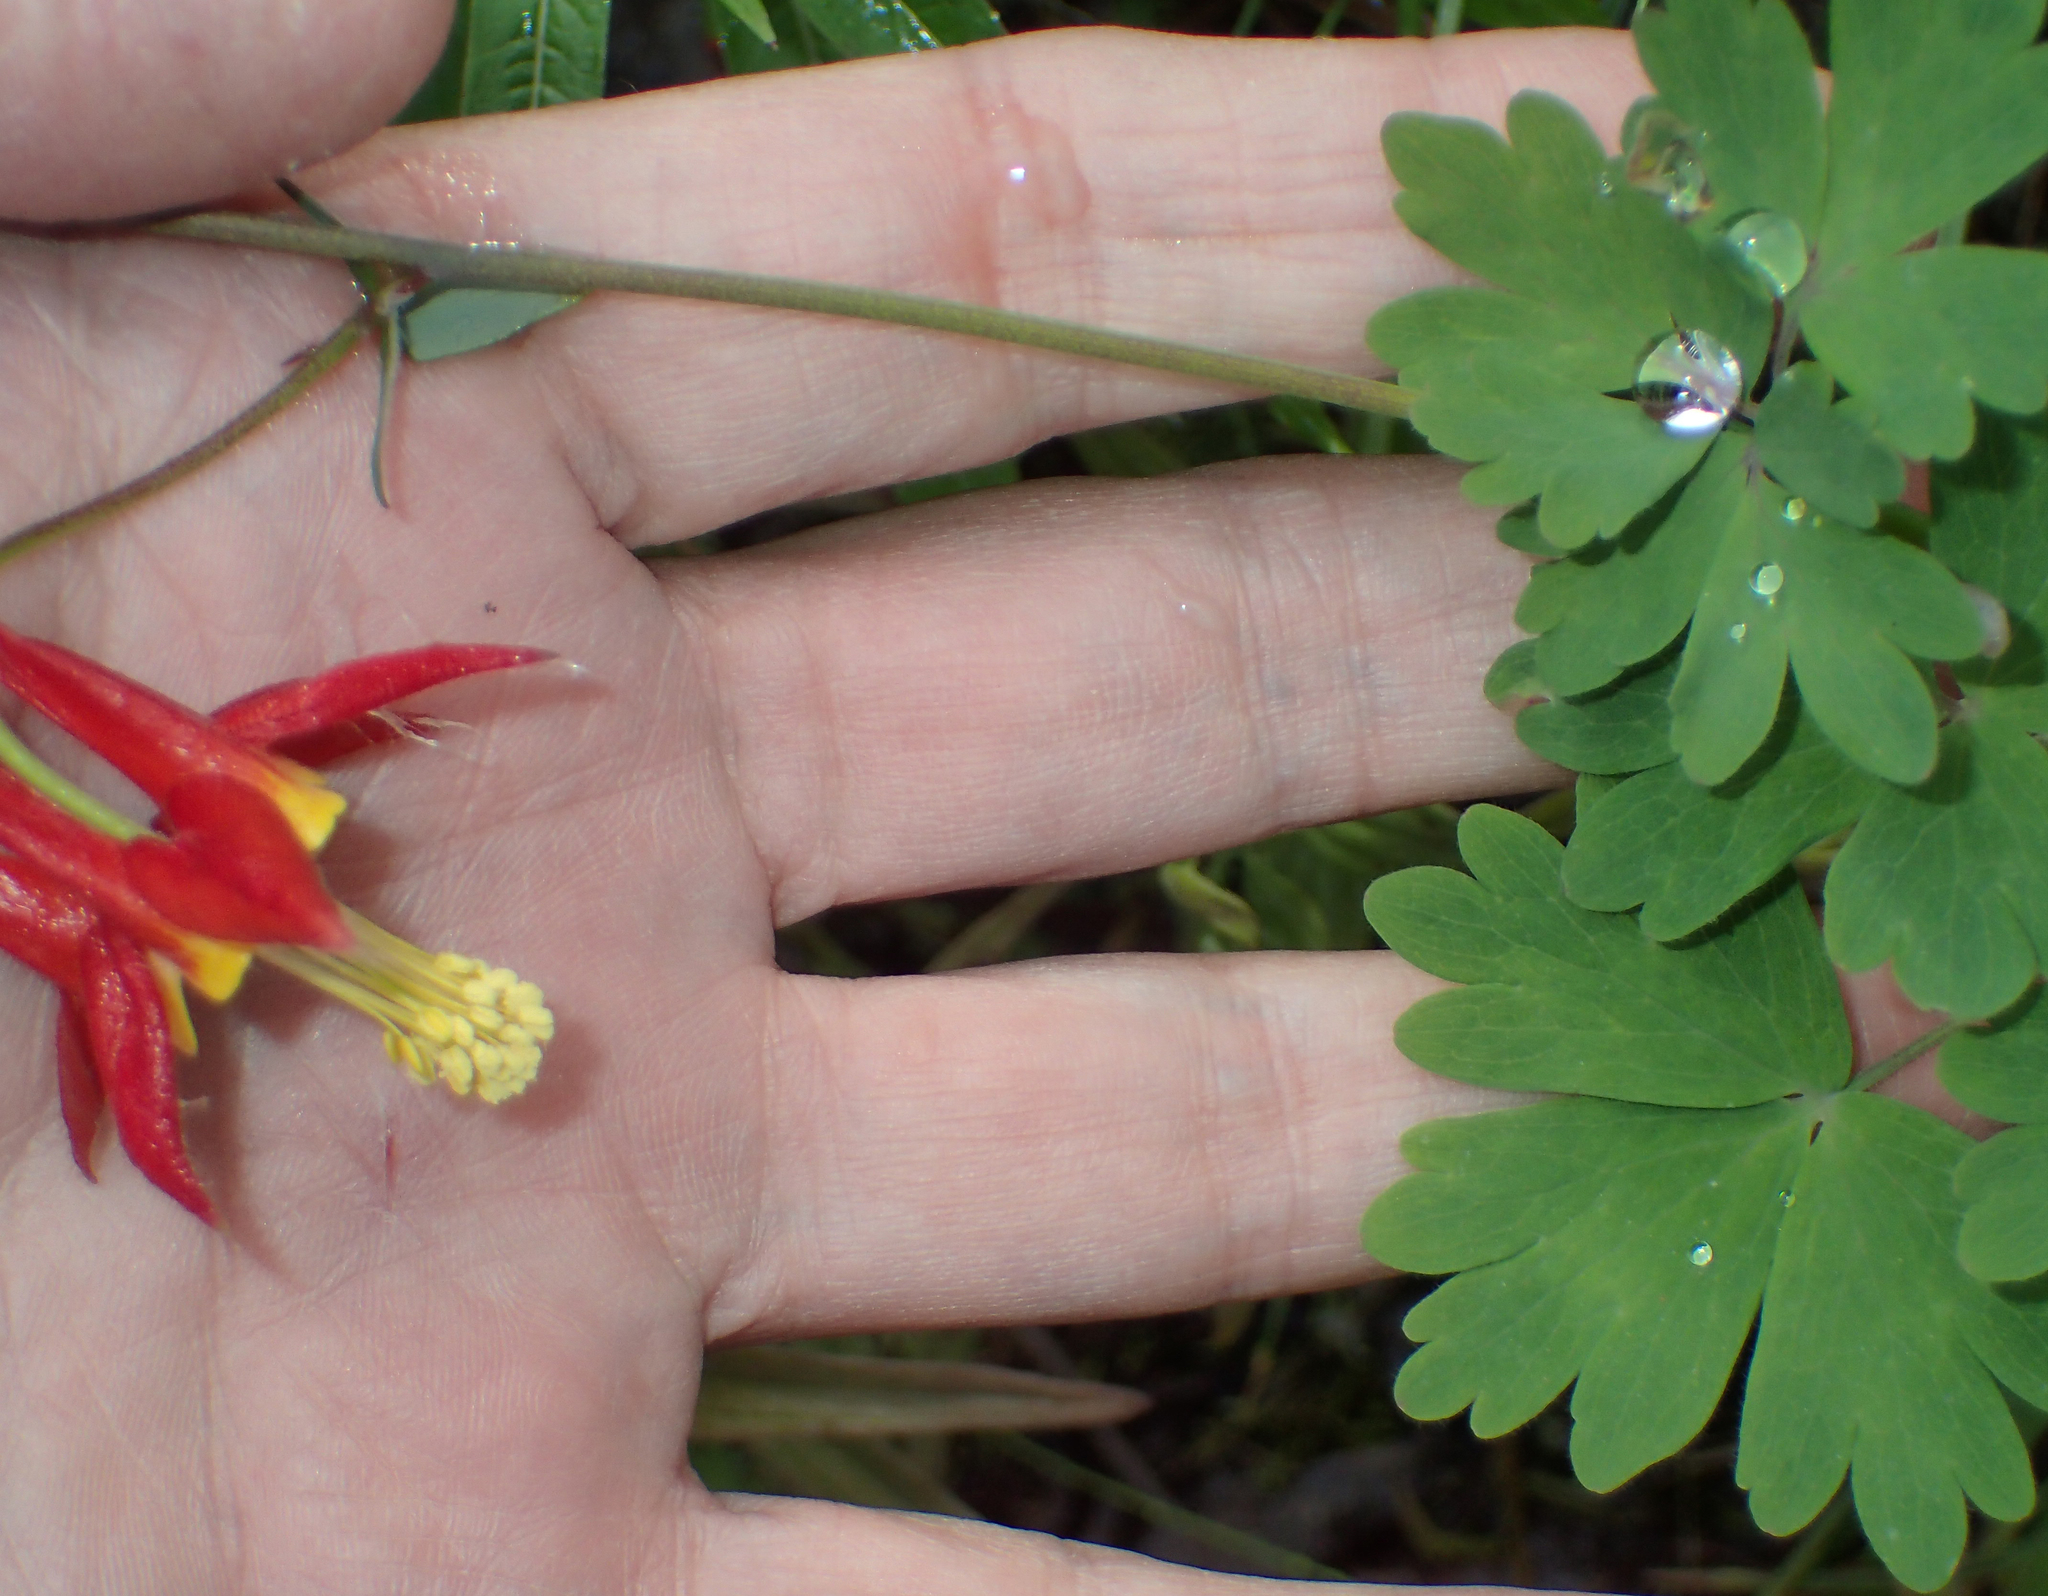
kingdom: Plantae
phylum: Tracheophyta
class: Magnoliopsida
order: Ranunculales
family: Ranunculaceae
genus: Aquilegia
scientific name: Aquilegia formosa
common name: Sitka columbine
